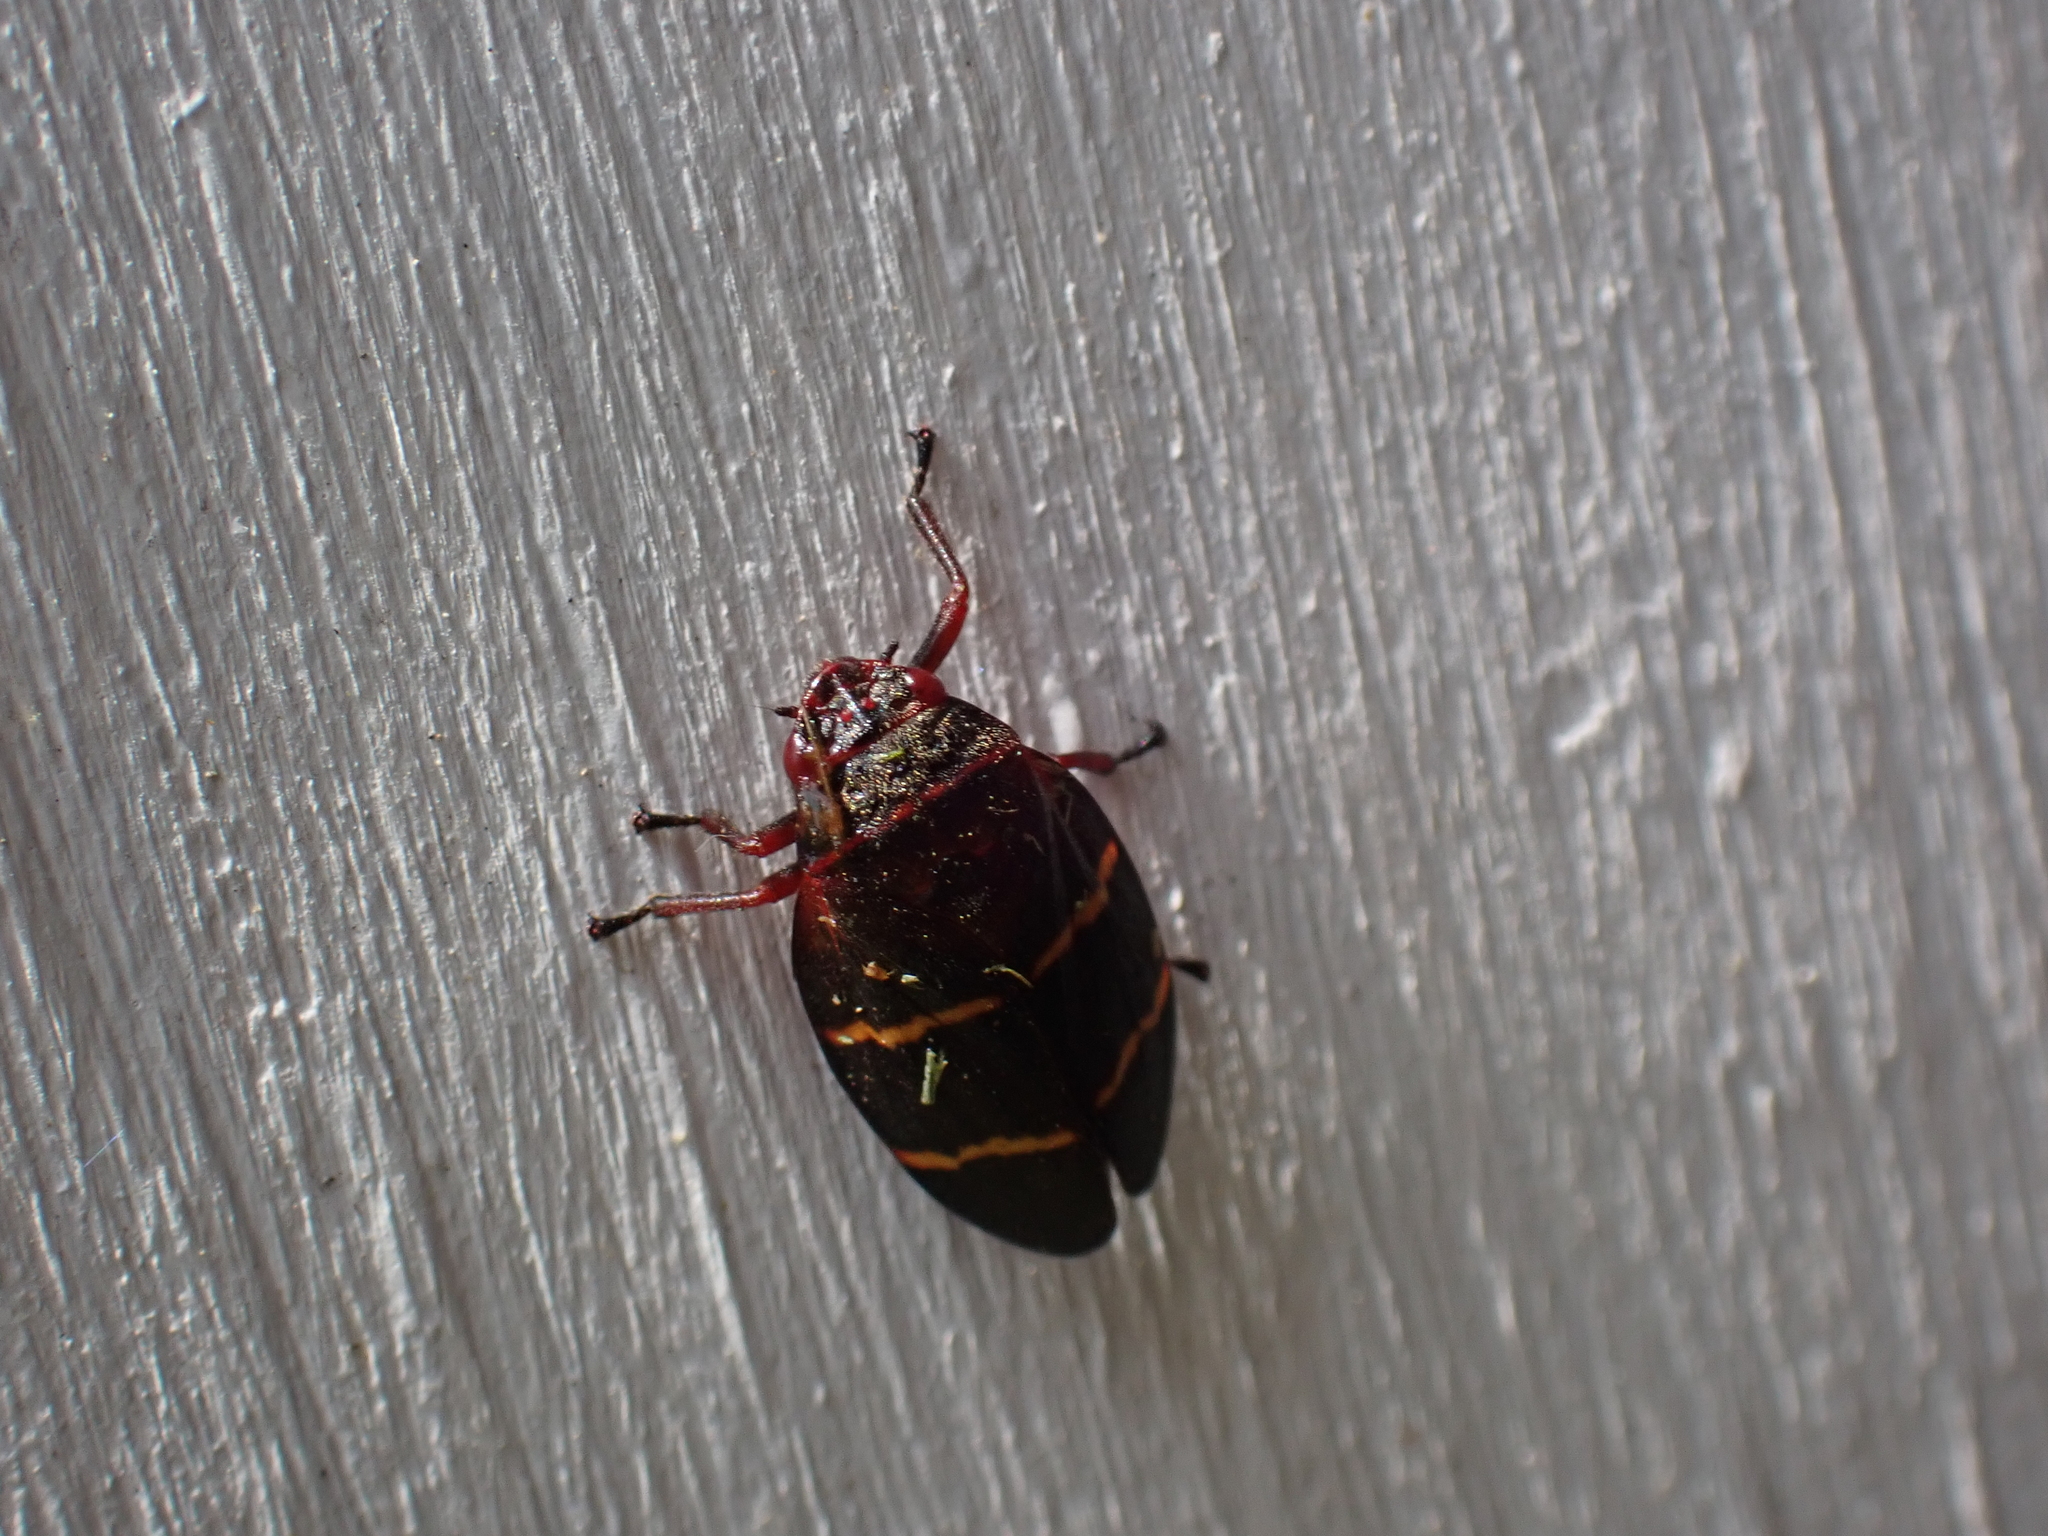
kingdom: Animalia
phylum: Arthropoda
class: Insecta
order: Hemiptera
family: Cercopidae
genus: Prosapia
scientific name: Prosapia bicincta
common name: Twolined spittlebug
